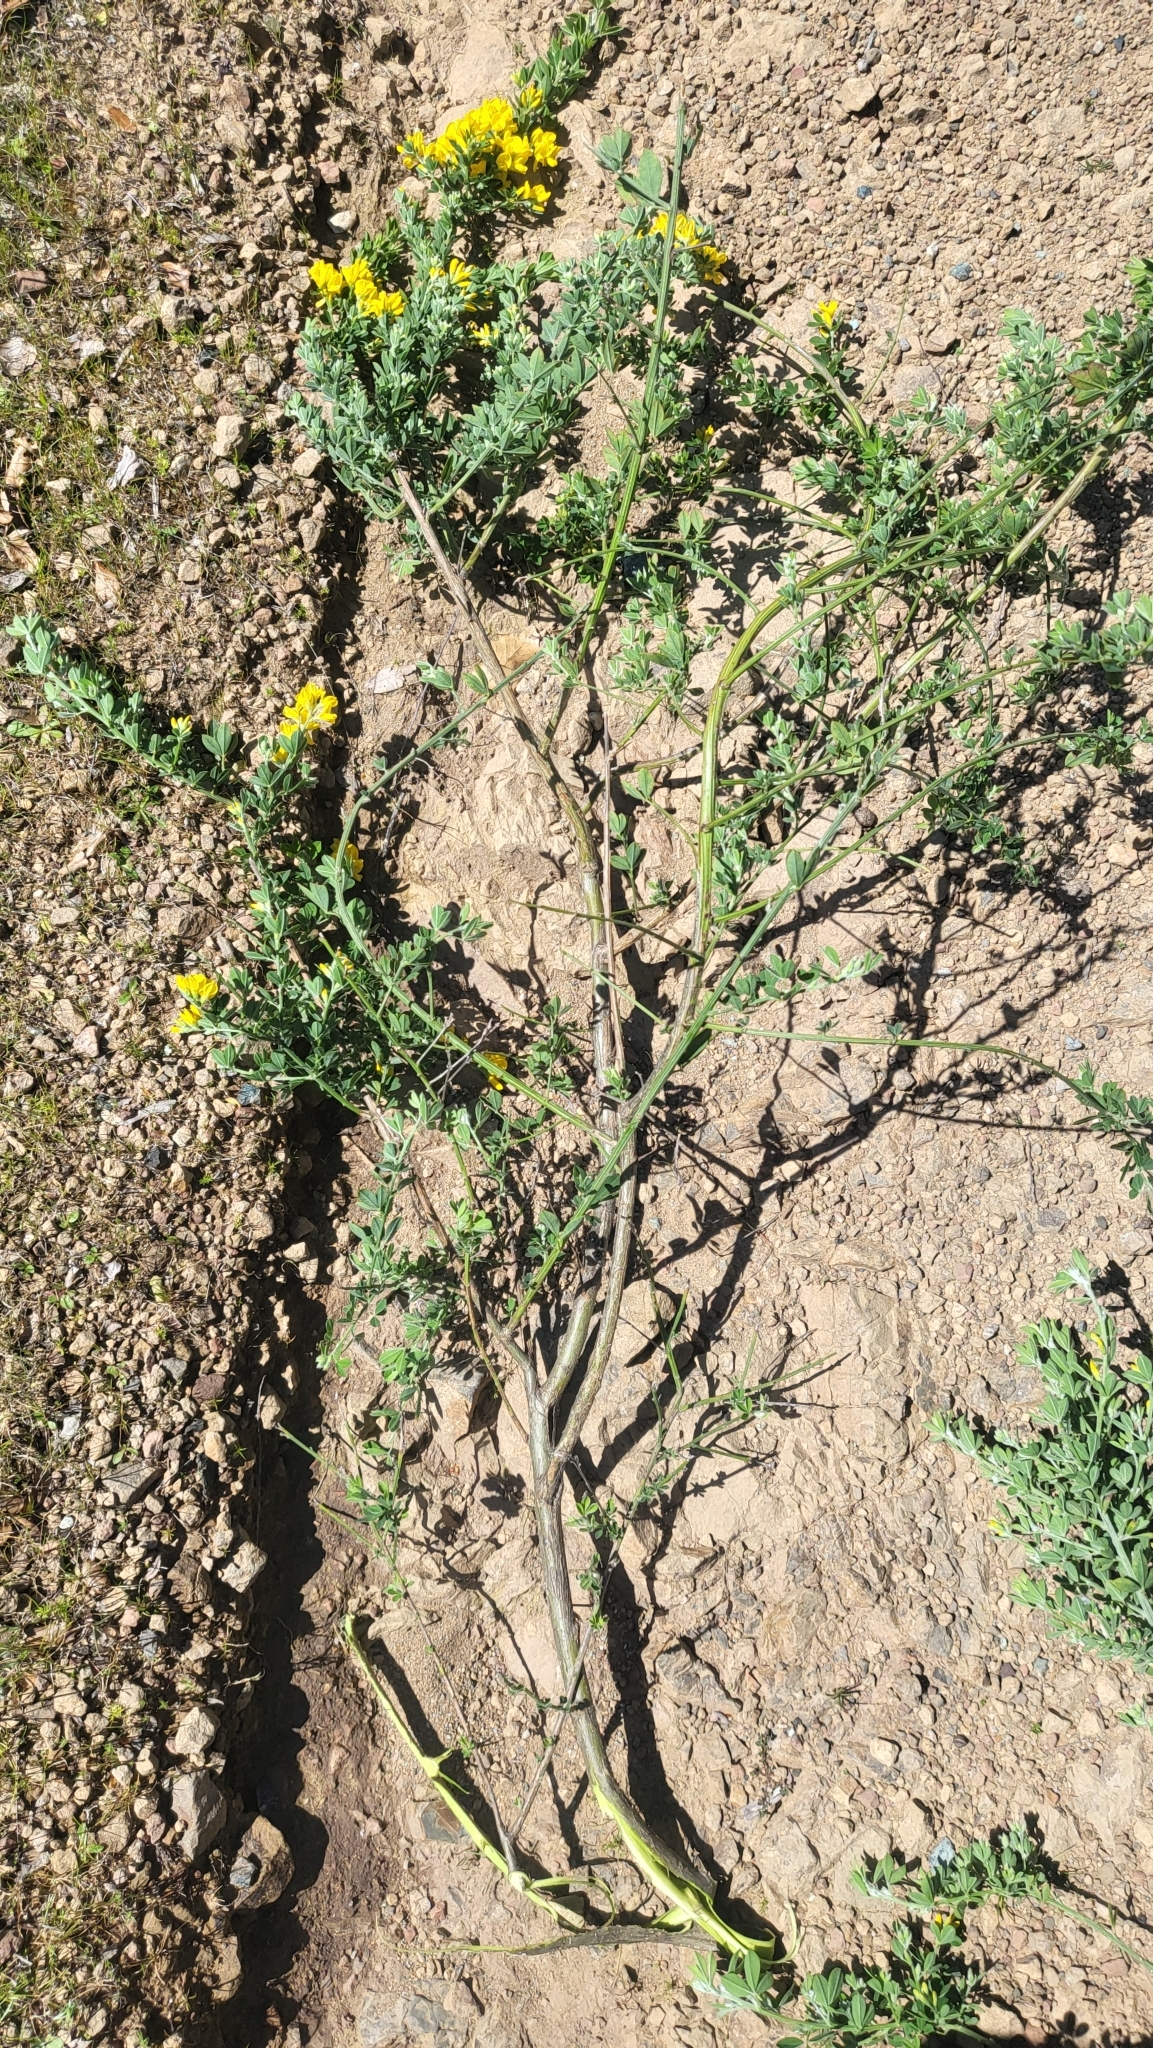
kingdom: Plantae
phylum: Tracheophyta
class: Magnoliopsida
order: Fabales
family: Fabaceae
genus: Genista
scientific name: Genista monspessulana
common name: Montpellier broom
